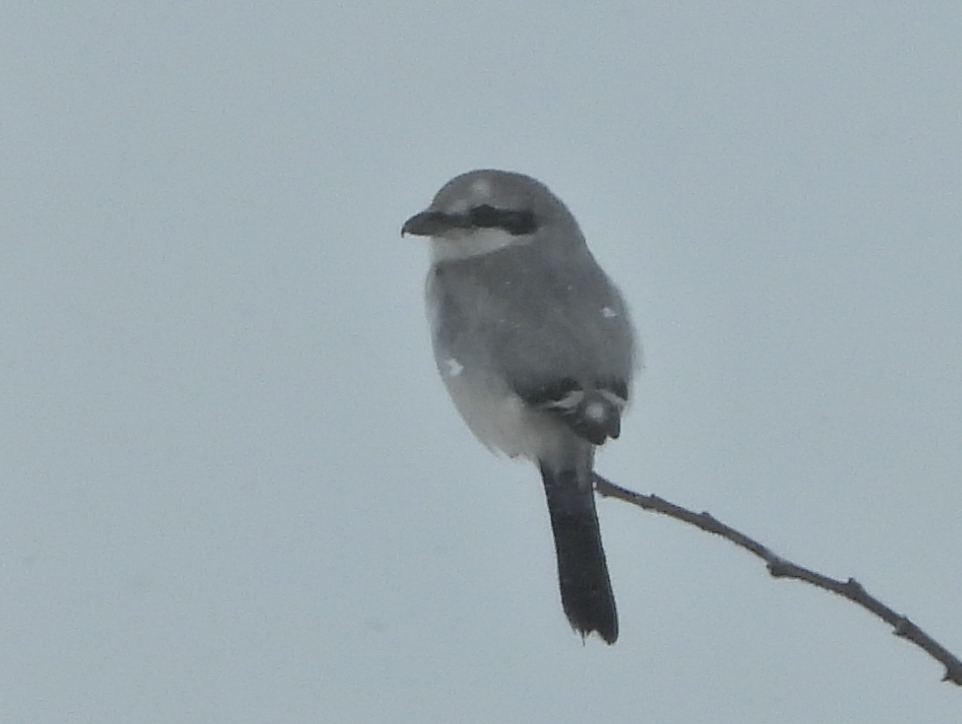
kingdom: Animalia
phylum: Chordata
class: Aves
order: Passeriformes
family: Laniidae
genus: Lanius
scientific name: Lanius excubitor
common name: Great grey shrike
